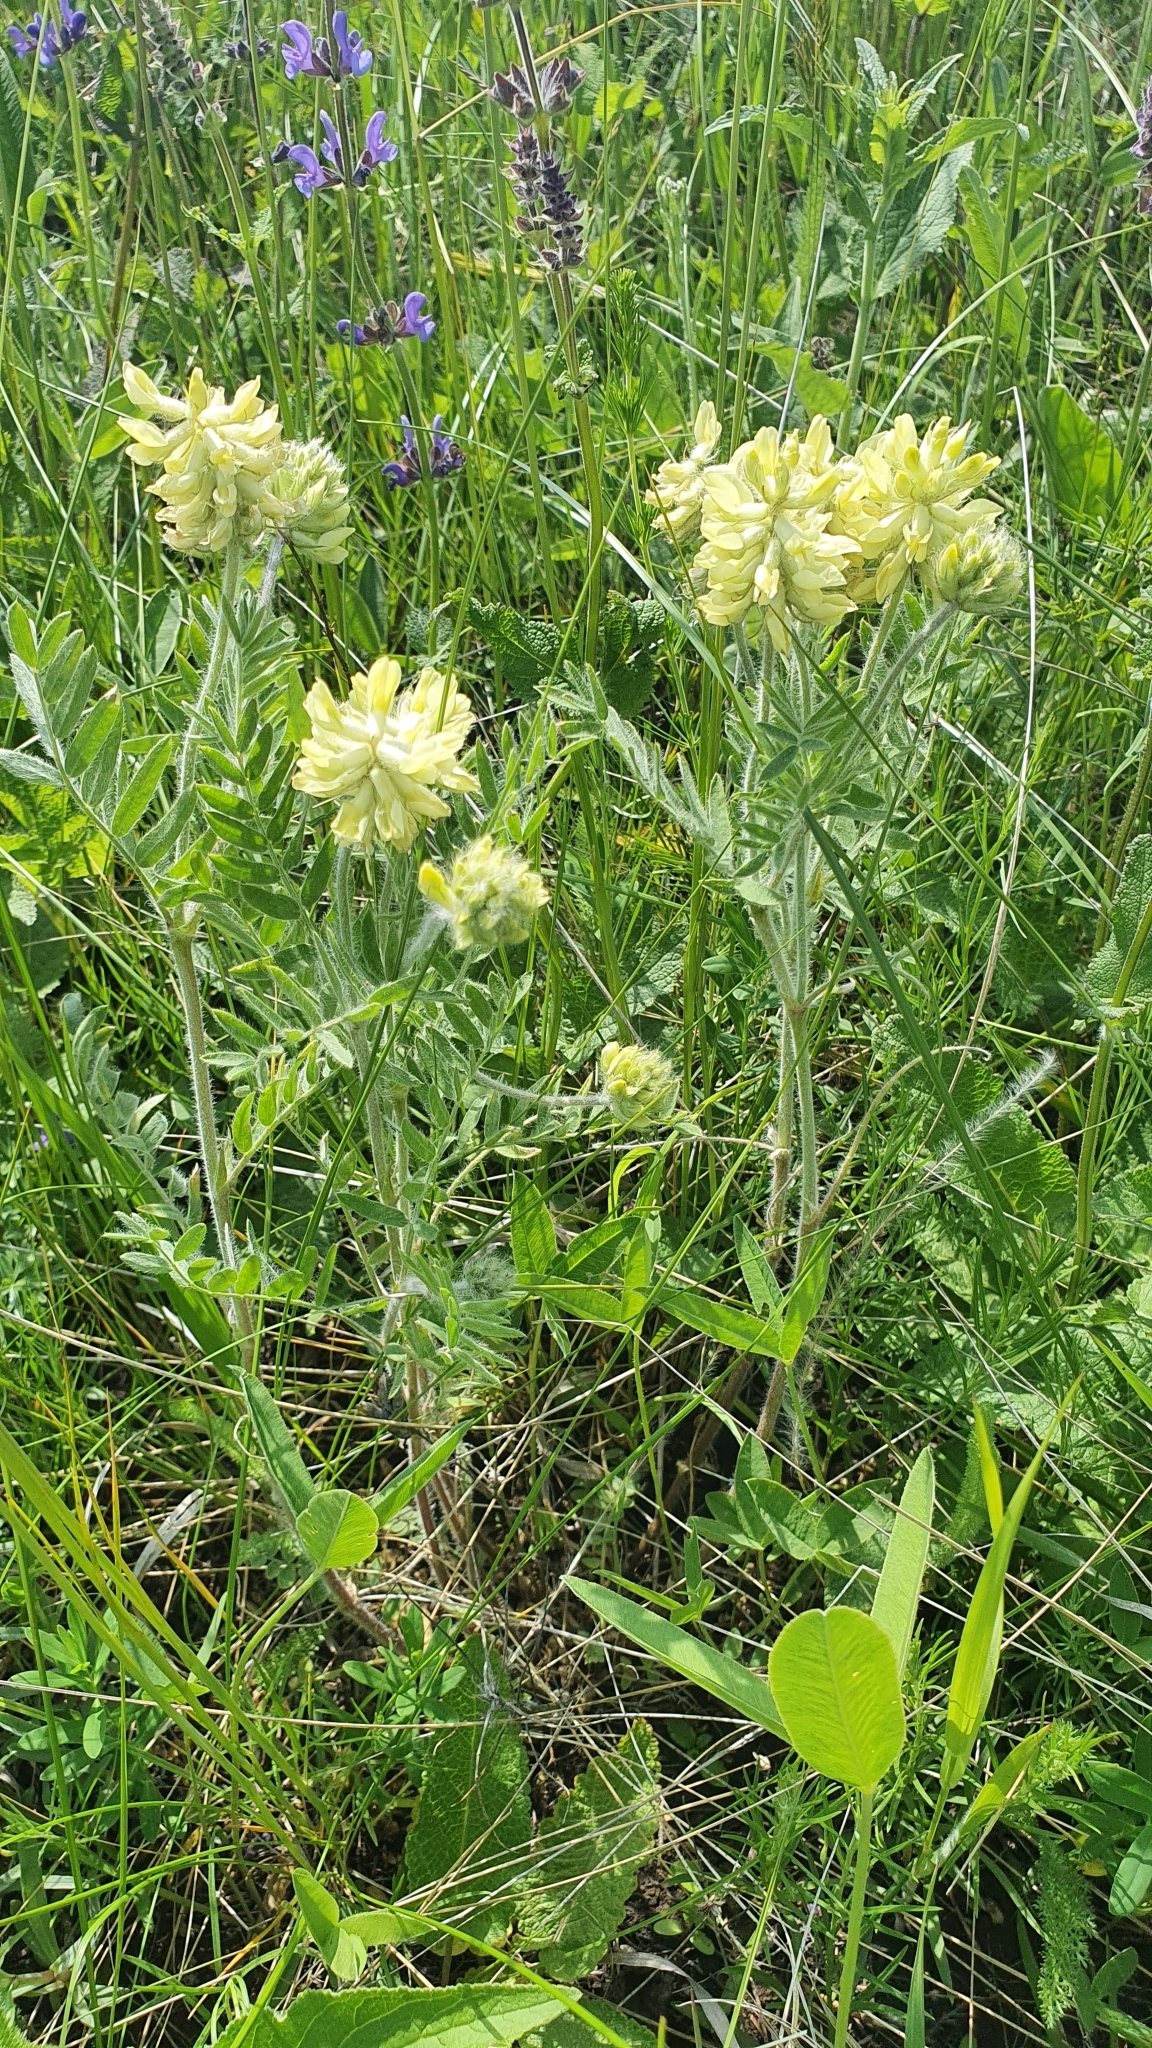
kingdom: Plantae
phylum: Tracheophyta
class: Magnoliopsida
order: Fabales
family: Fabaceae
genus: Oxytropis
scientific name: Oxytropis pilosa
